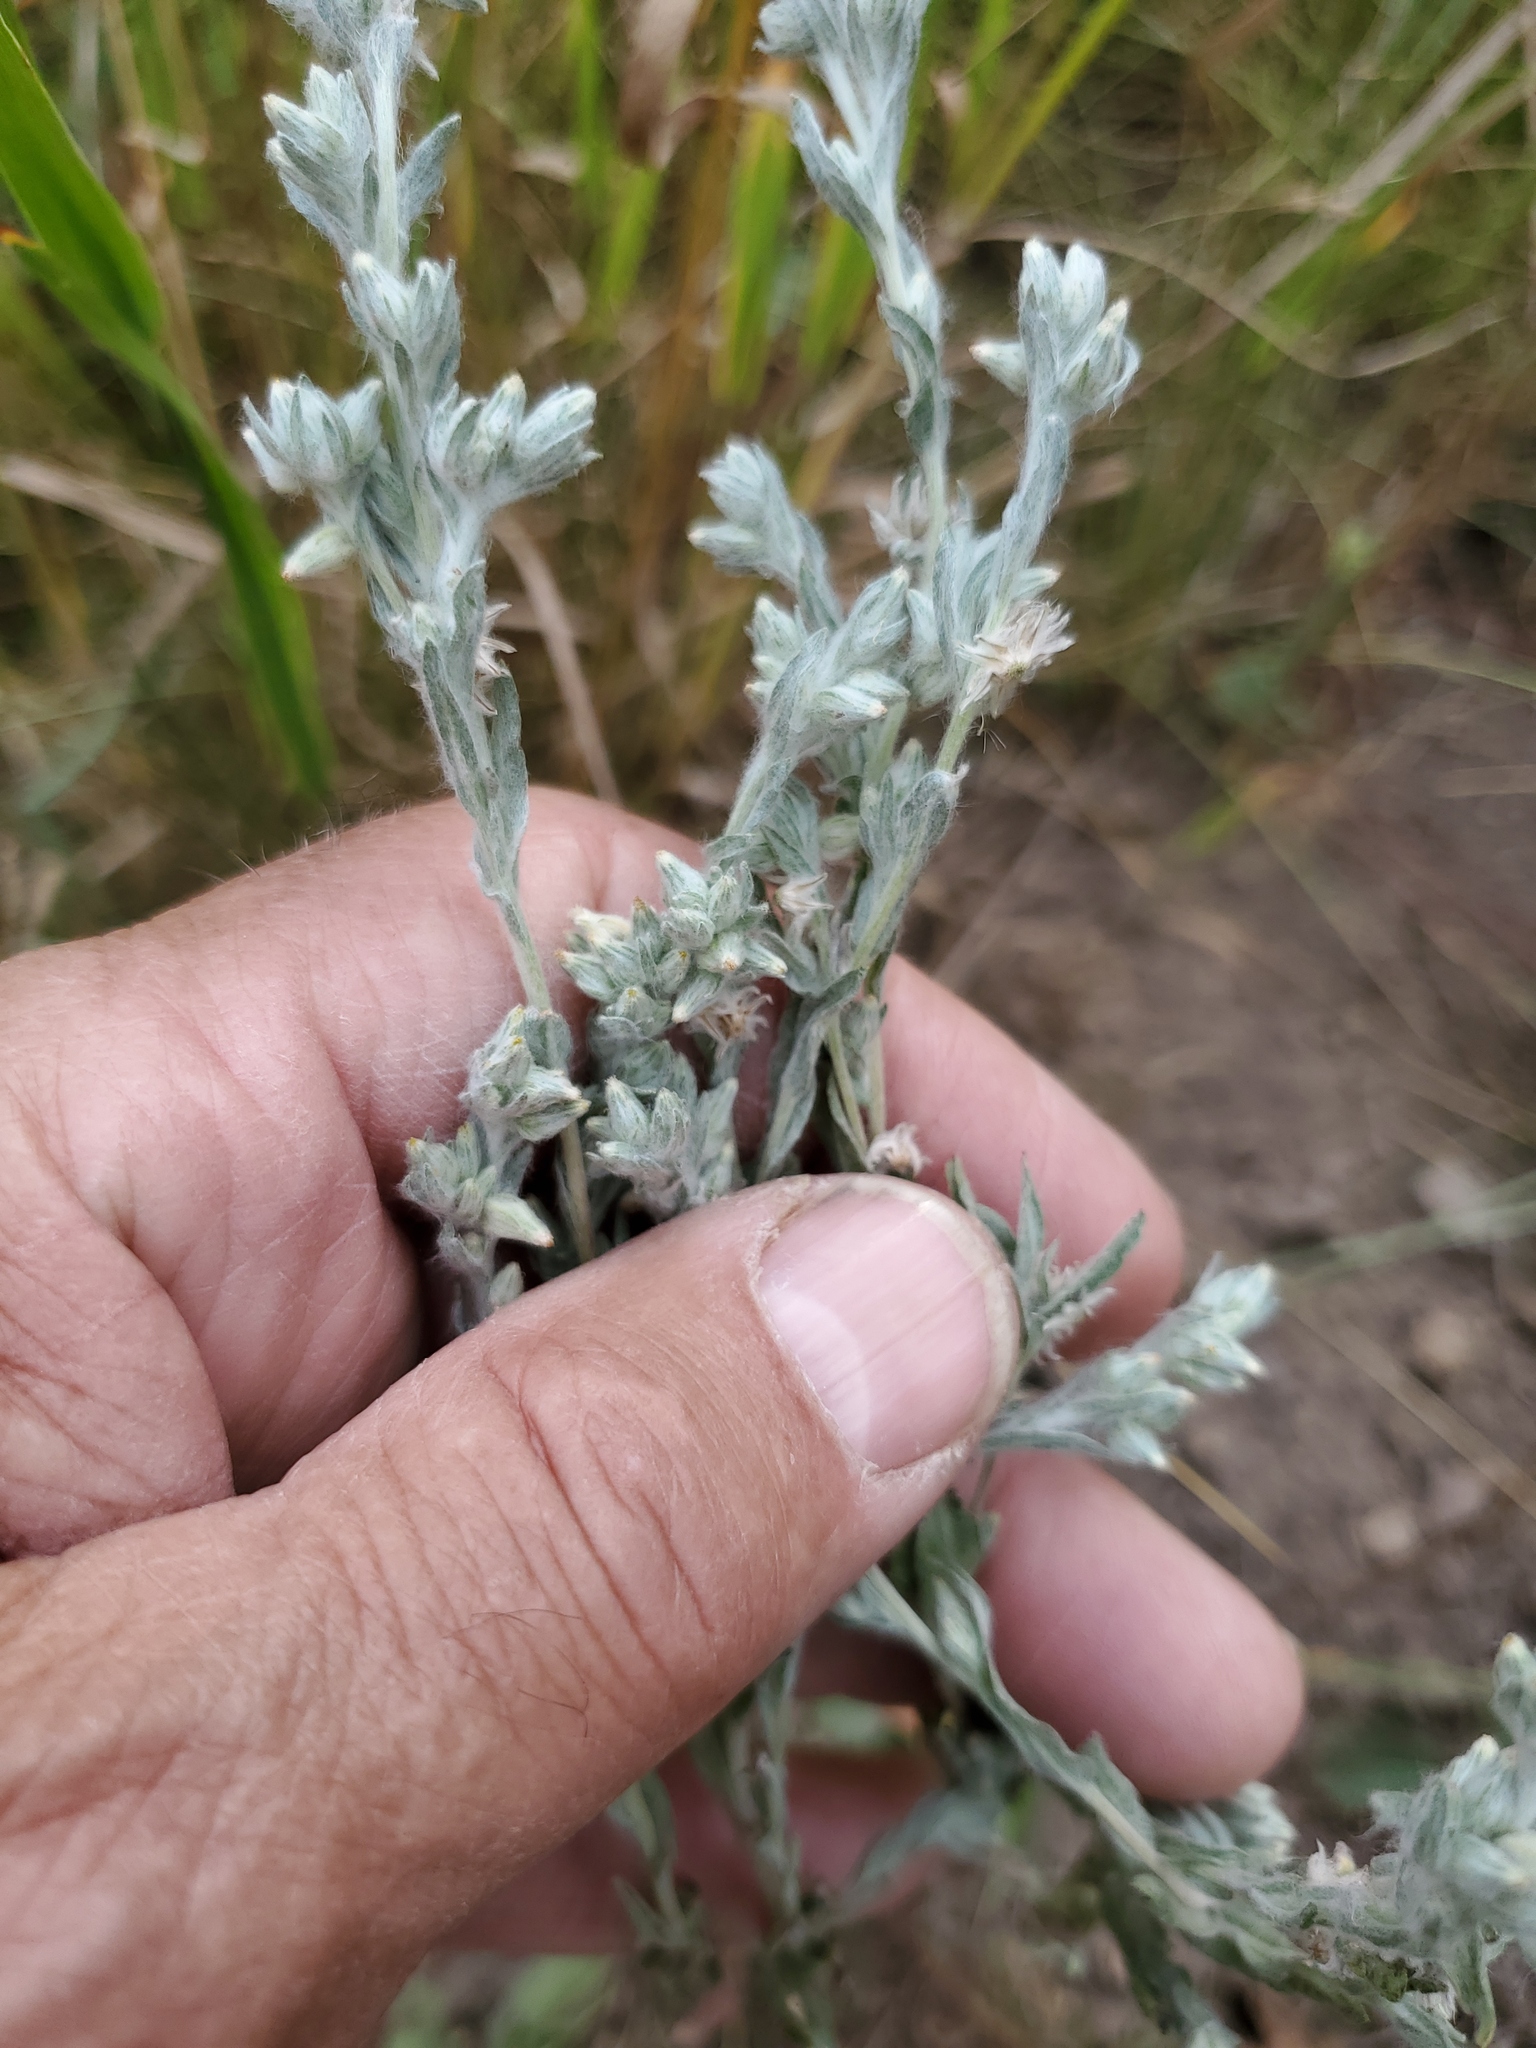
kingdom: Plantae
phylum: Tracheophyta
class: Magnoliopsida
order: Asterales
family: Asteraceae
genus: Filago
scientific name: Filago arvensis
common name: Field cudweed
